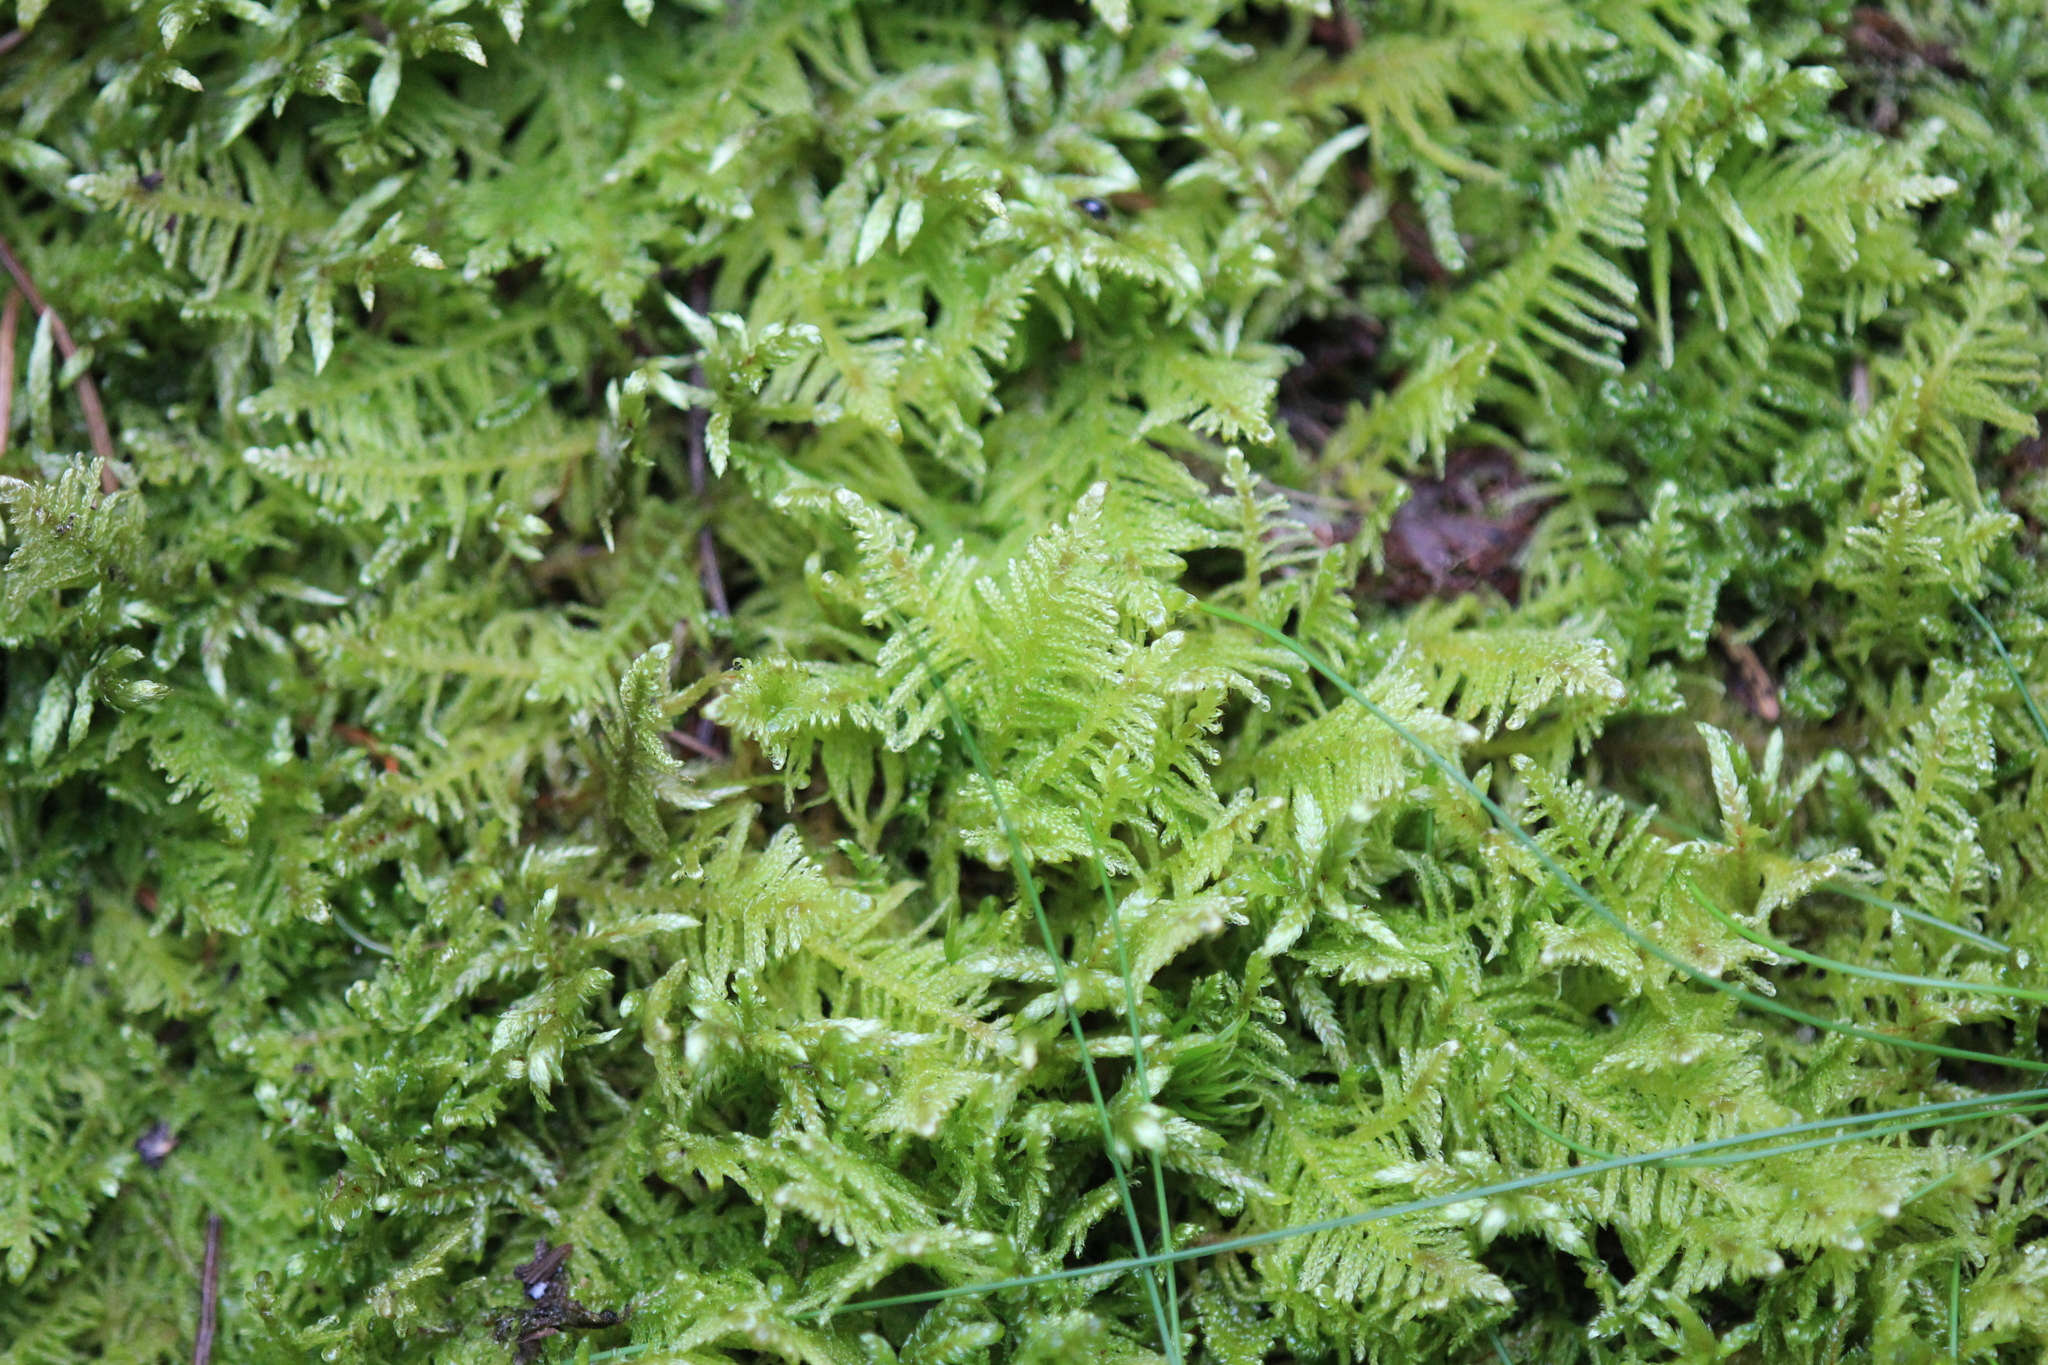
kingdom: Plantae
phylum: Bryophyta
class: Bryopsida
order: Hypnales
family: Pylaisiaceae
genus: Ptilium
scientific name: Ptilium crista-castrensis
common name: Knight's plume moss
